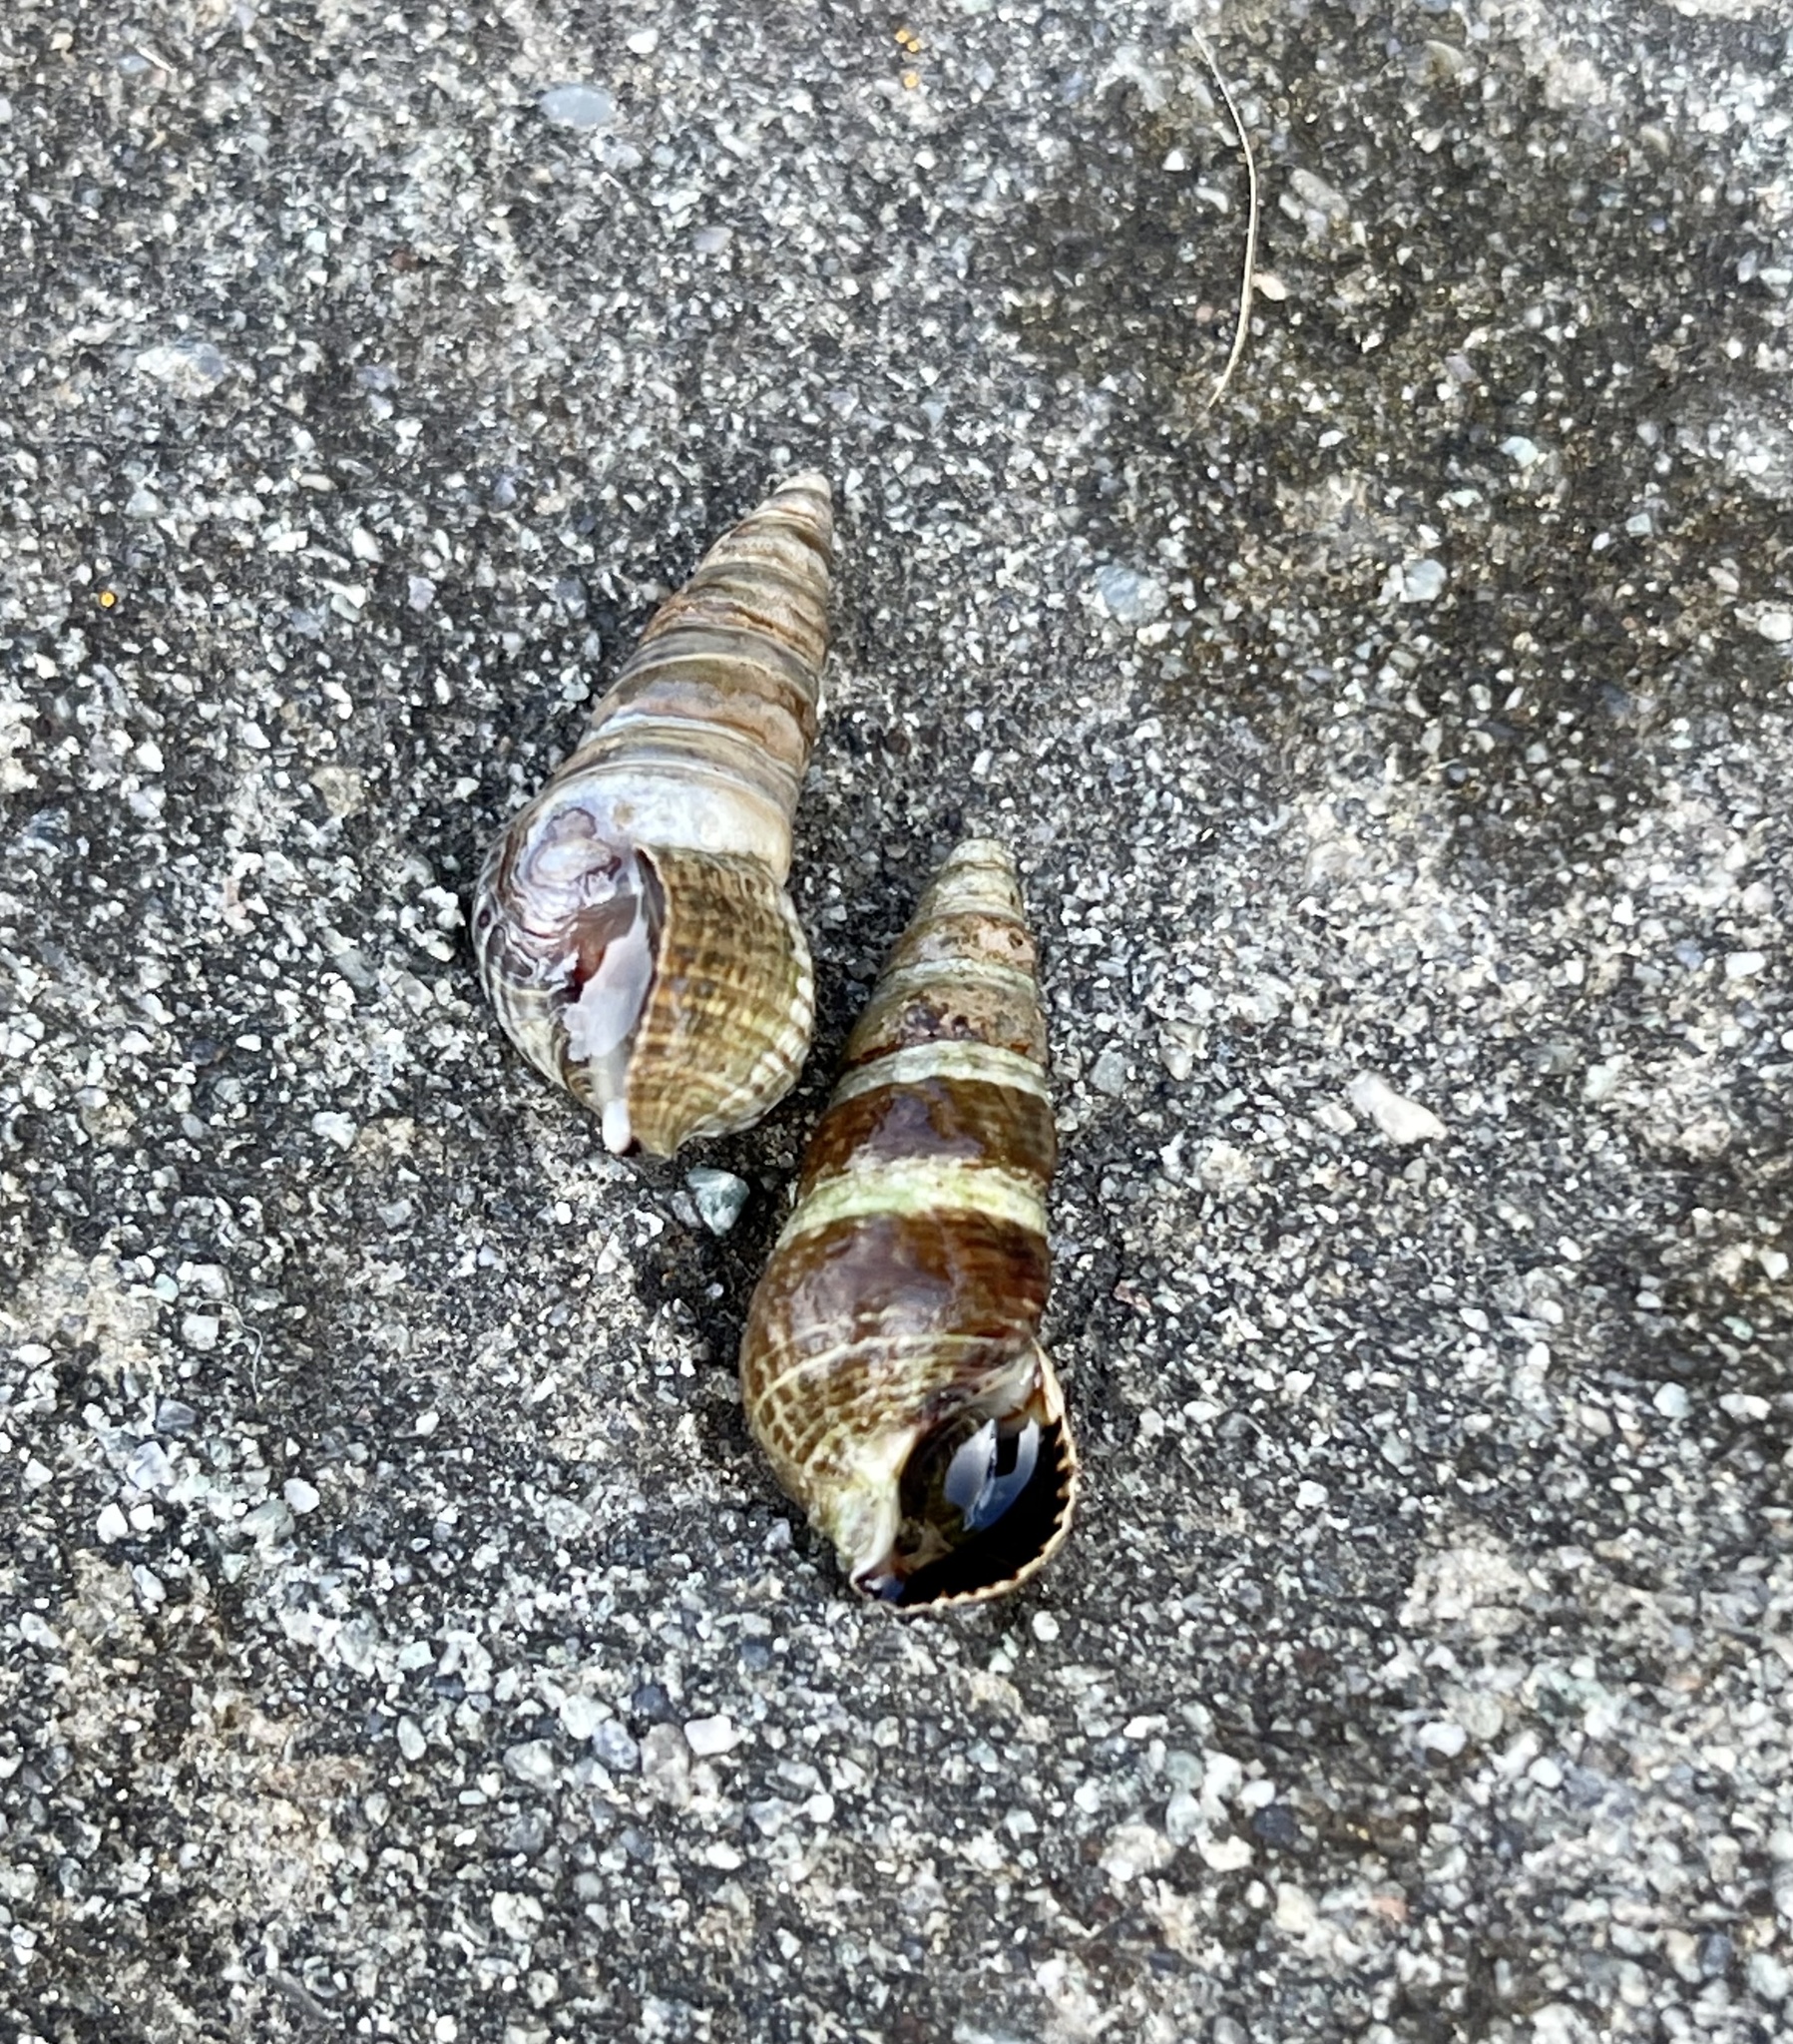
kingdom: Animalia
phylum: Mollusca
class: Gastropoda
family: Batillariidae
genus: Batillaria
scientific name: Batillaria attramentaria
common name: Japanese false cerith
